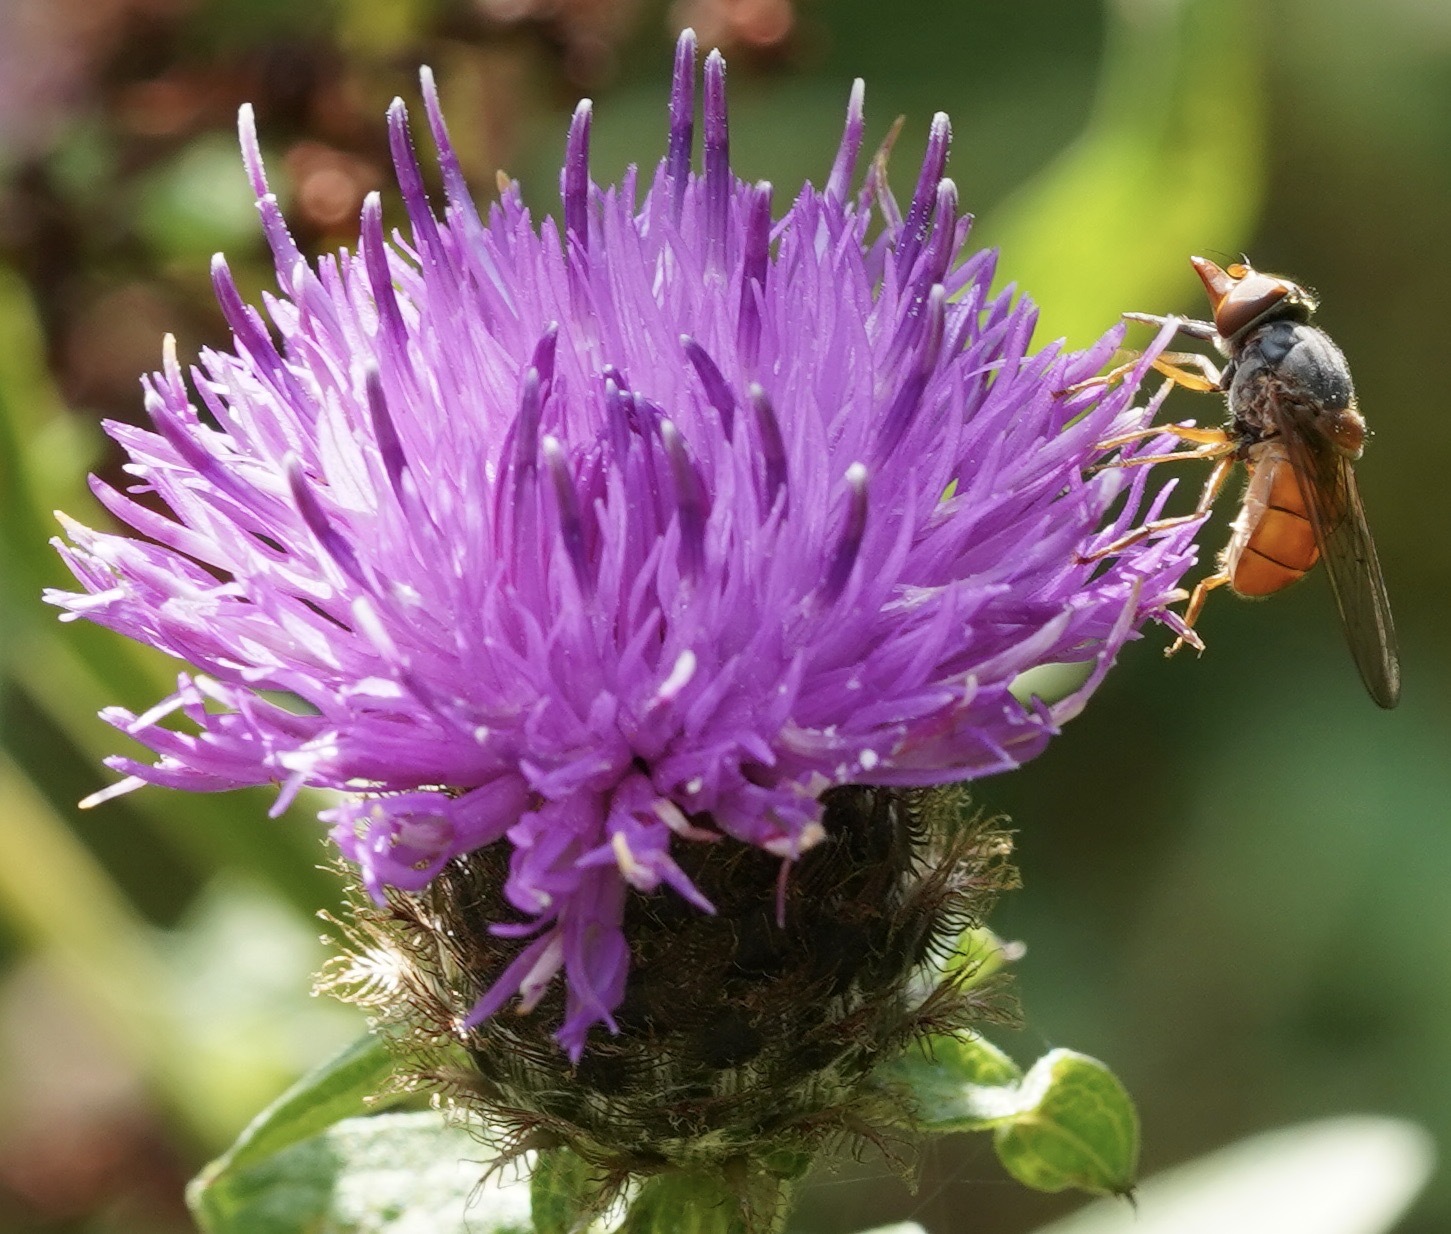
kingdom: Animalia
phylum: Arthropoda
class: Insecta
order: Diptera
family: Syrphidae
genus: Rhingia
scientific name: Rhingia rostrata
